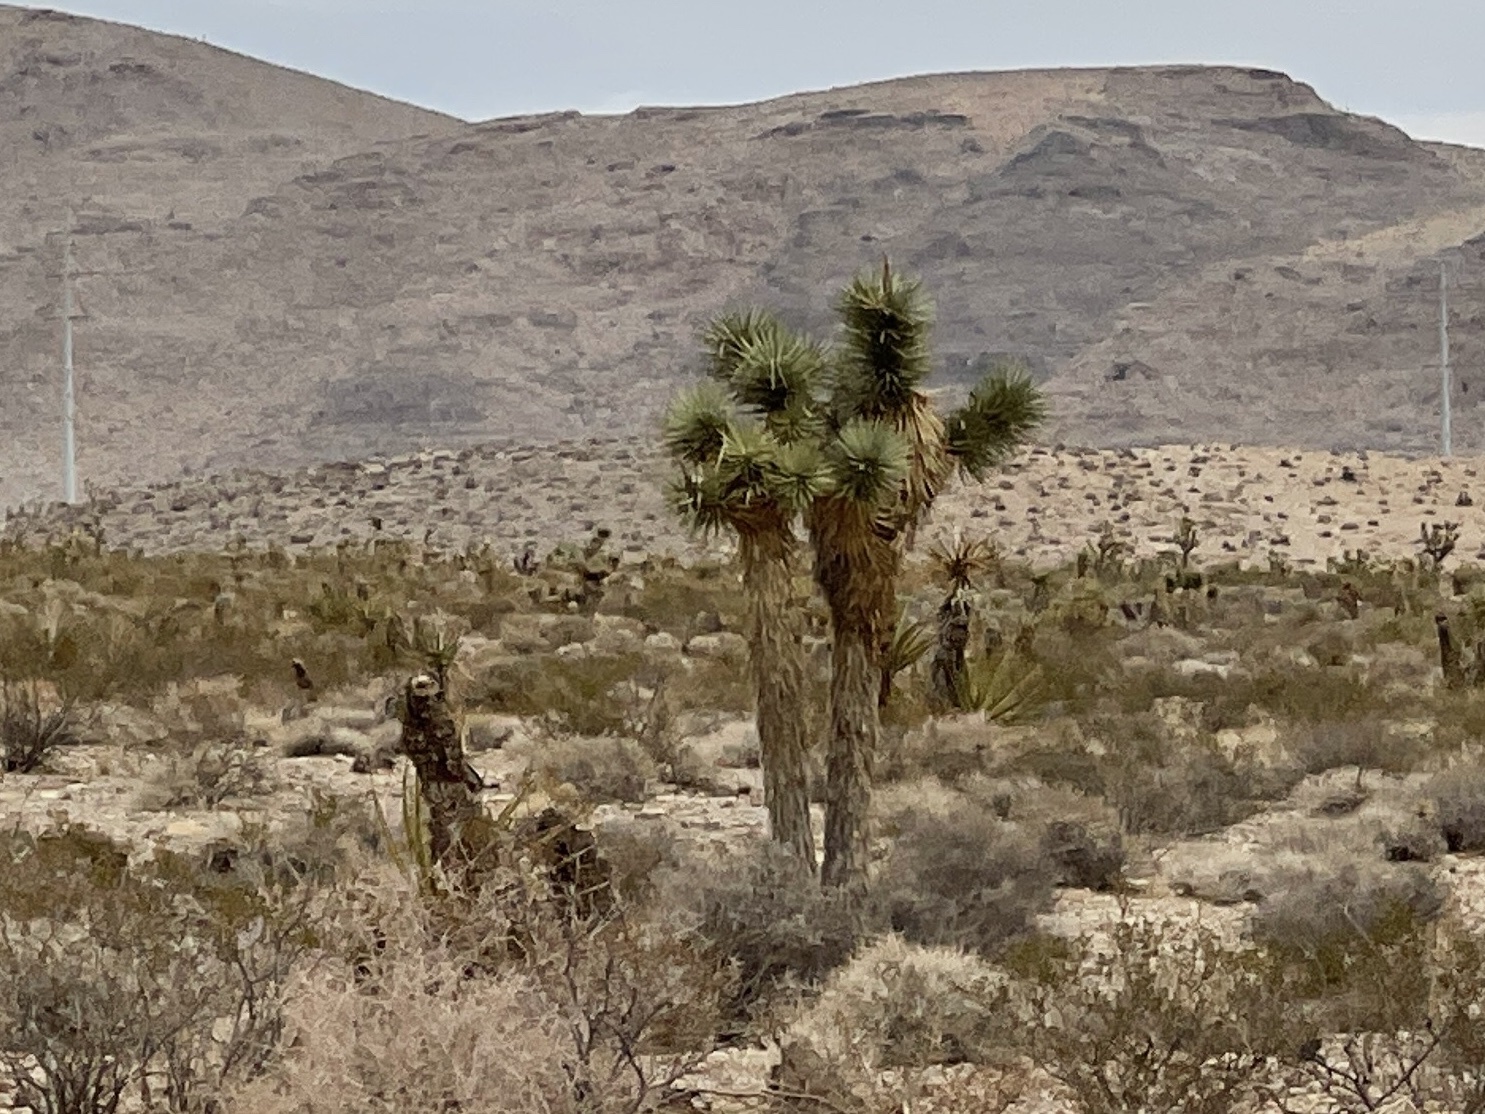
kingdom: Plantae
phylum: Tracheophyta
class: Liliopsida
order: Asparagales
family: Asparagaceae
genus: Yucca
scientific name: Yucca brevifolia
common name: Joshua tree
